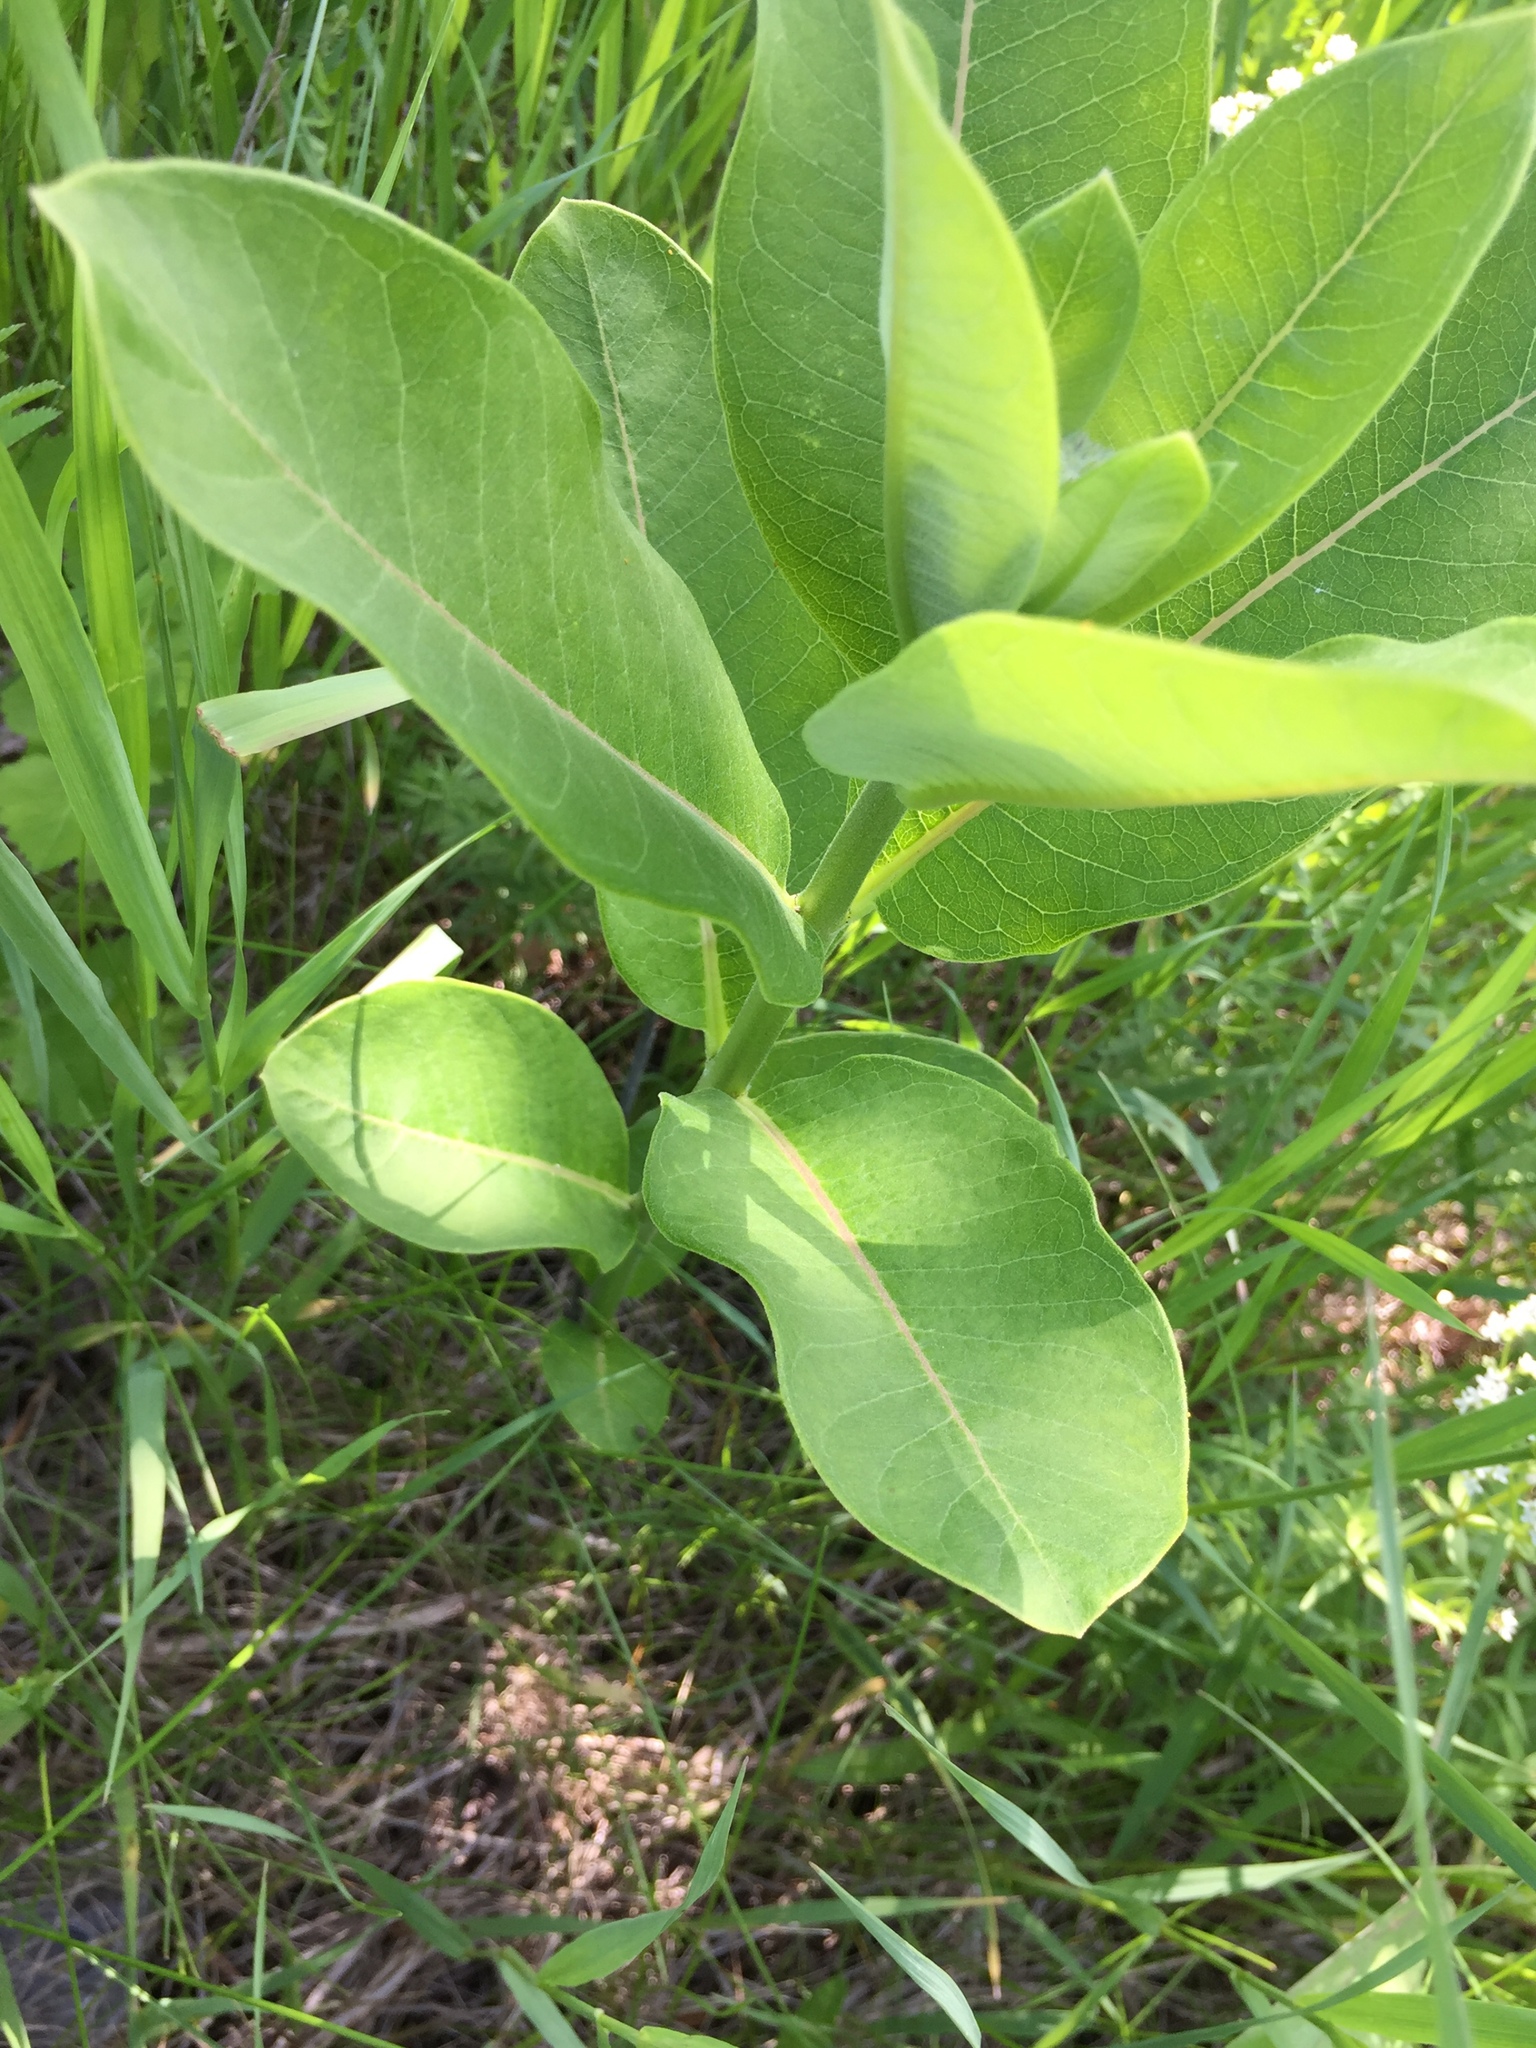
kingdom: Plantae
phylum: Tracheophyta
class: Magnoliopsida
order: Gentianales
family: Apocynaceae
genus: Asclepias
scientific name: Asclepias syriaca
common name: Common milkweed
